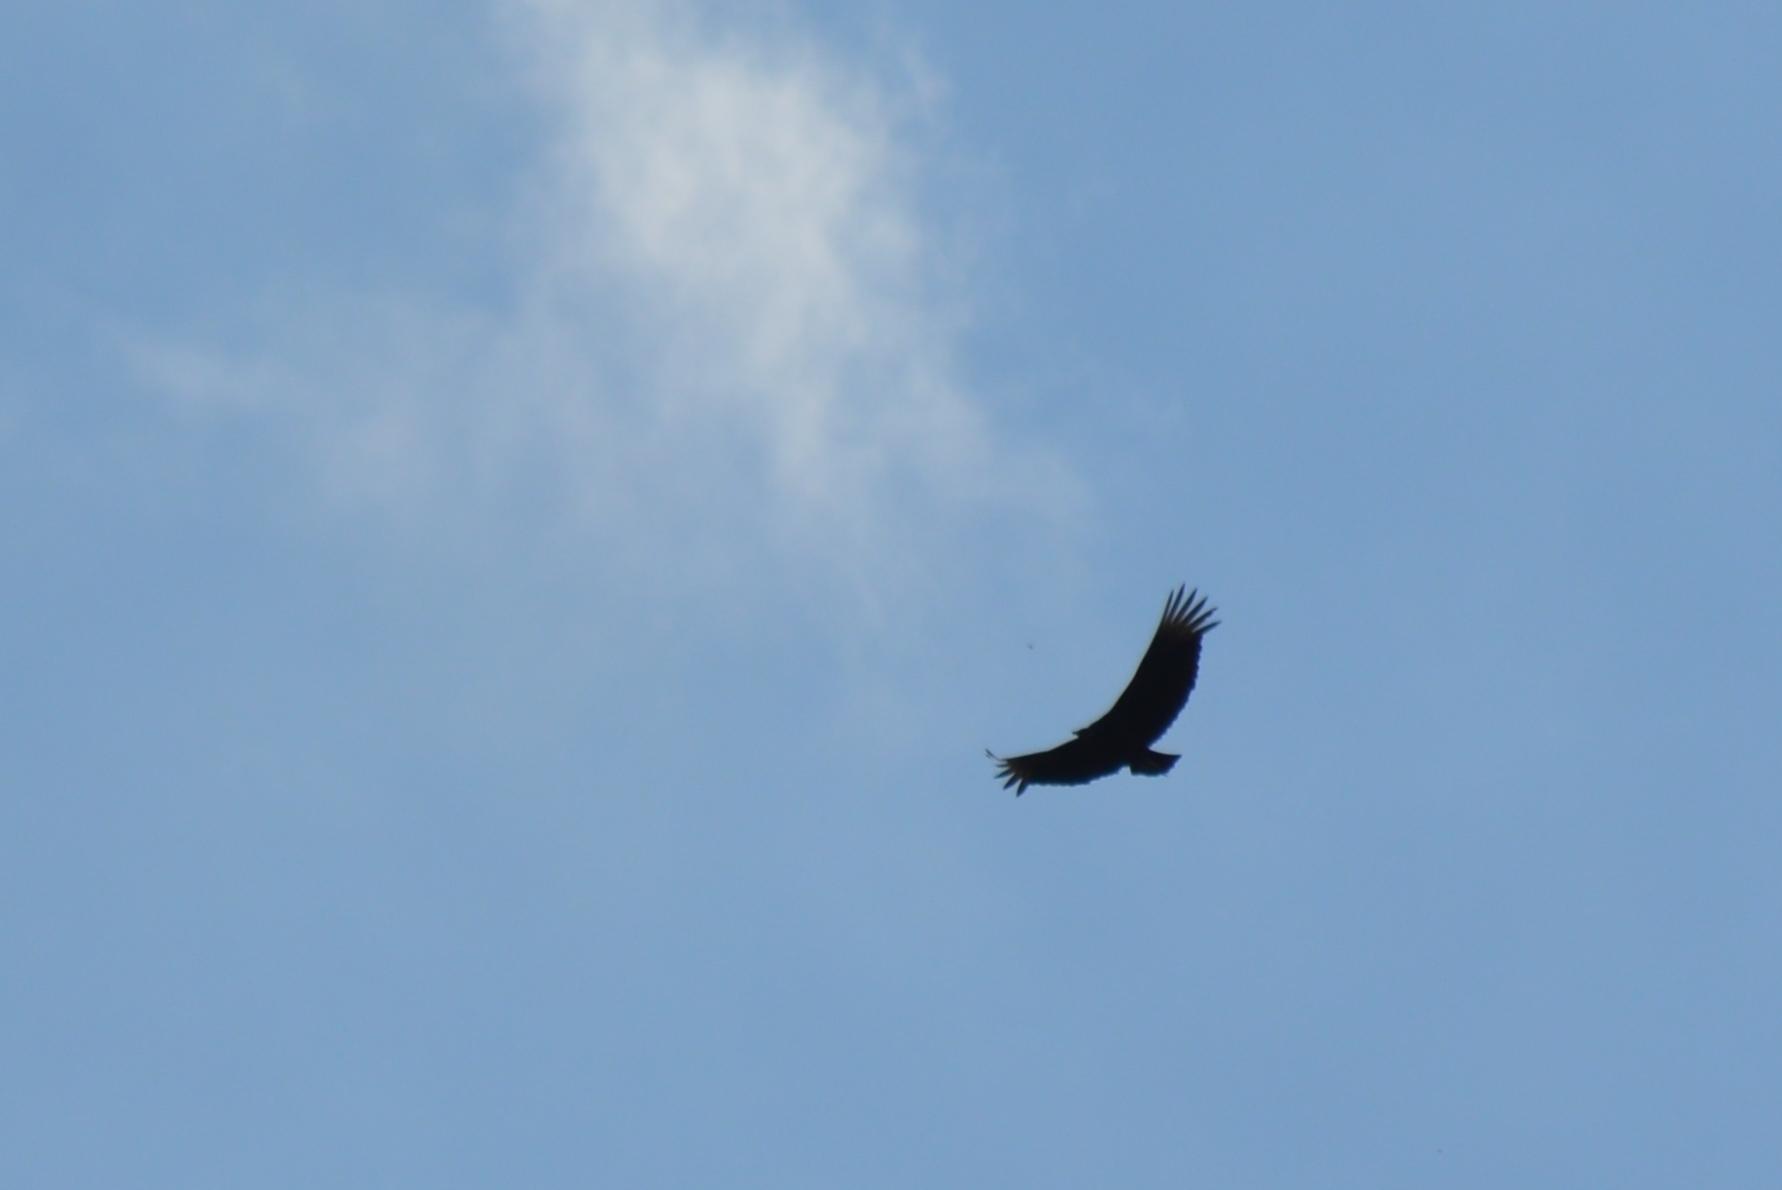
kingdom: Animalia
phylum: Chordata
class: Aves
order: Accipitriformes
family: Cathartidae
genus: Coragyps
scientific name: Coragyps atratus
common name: Black vulture
